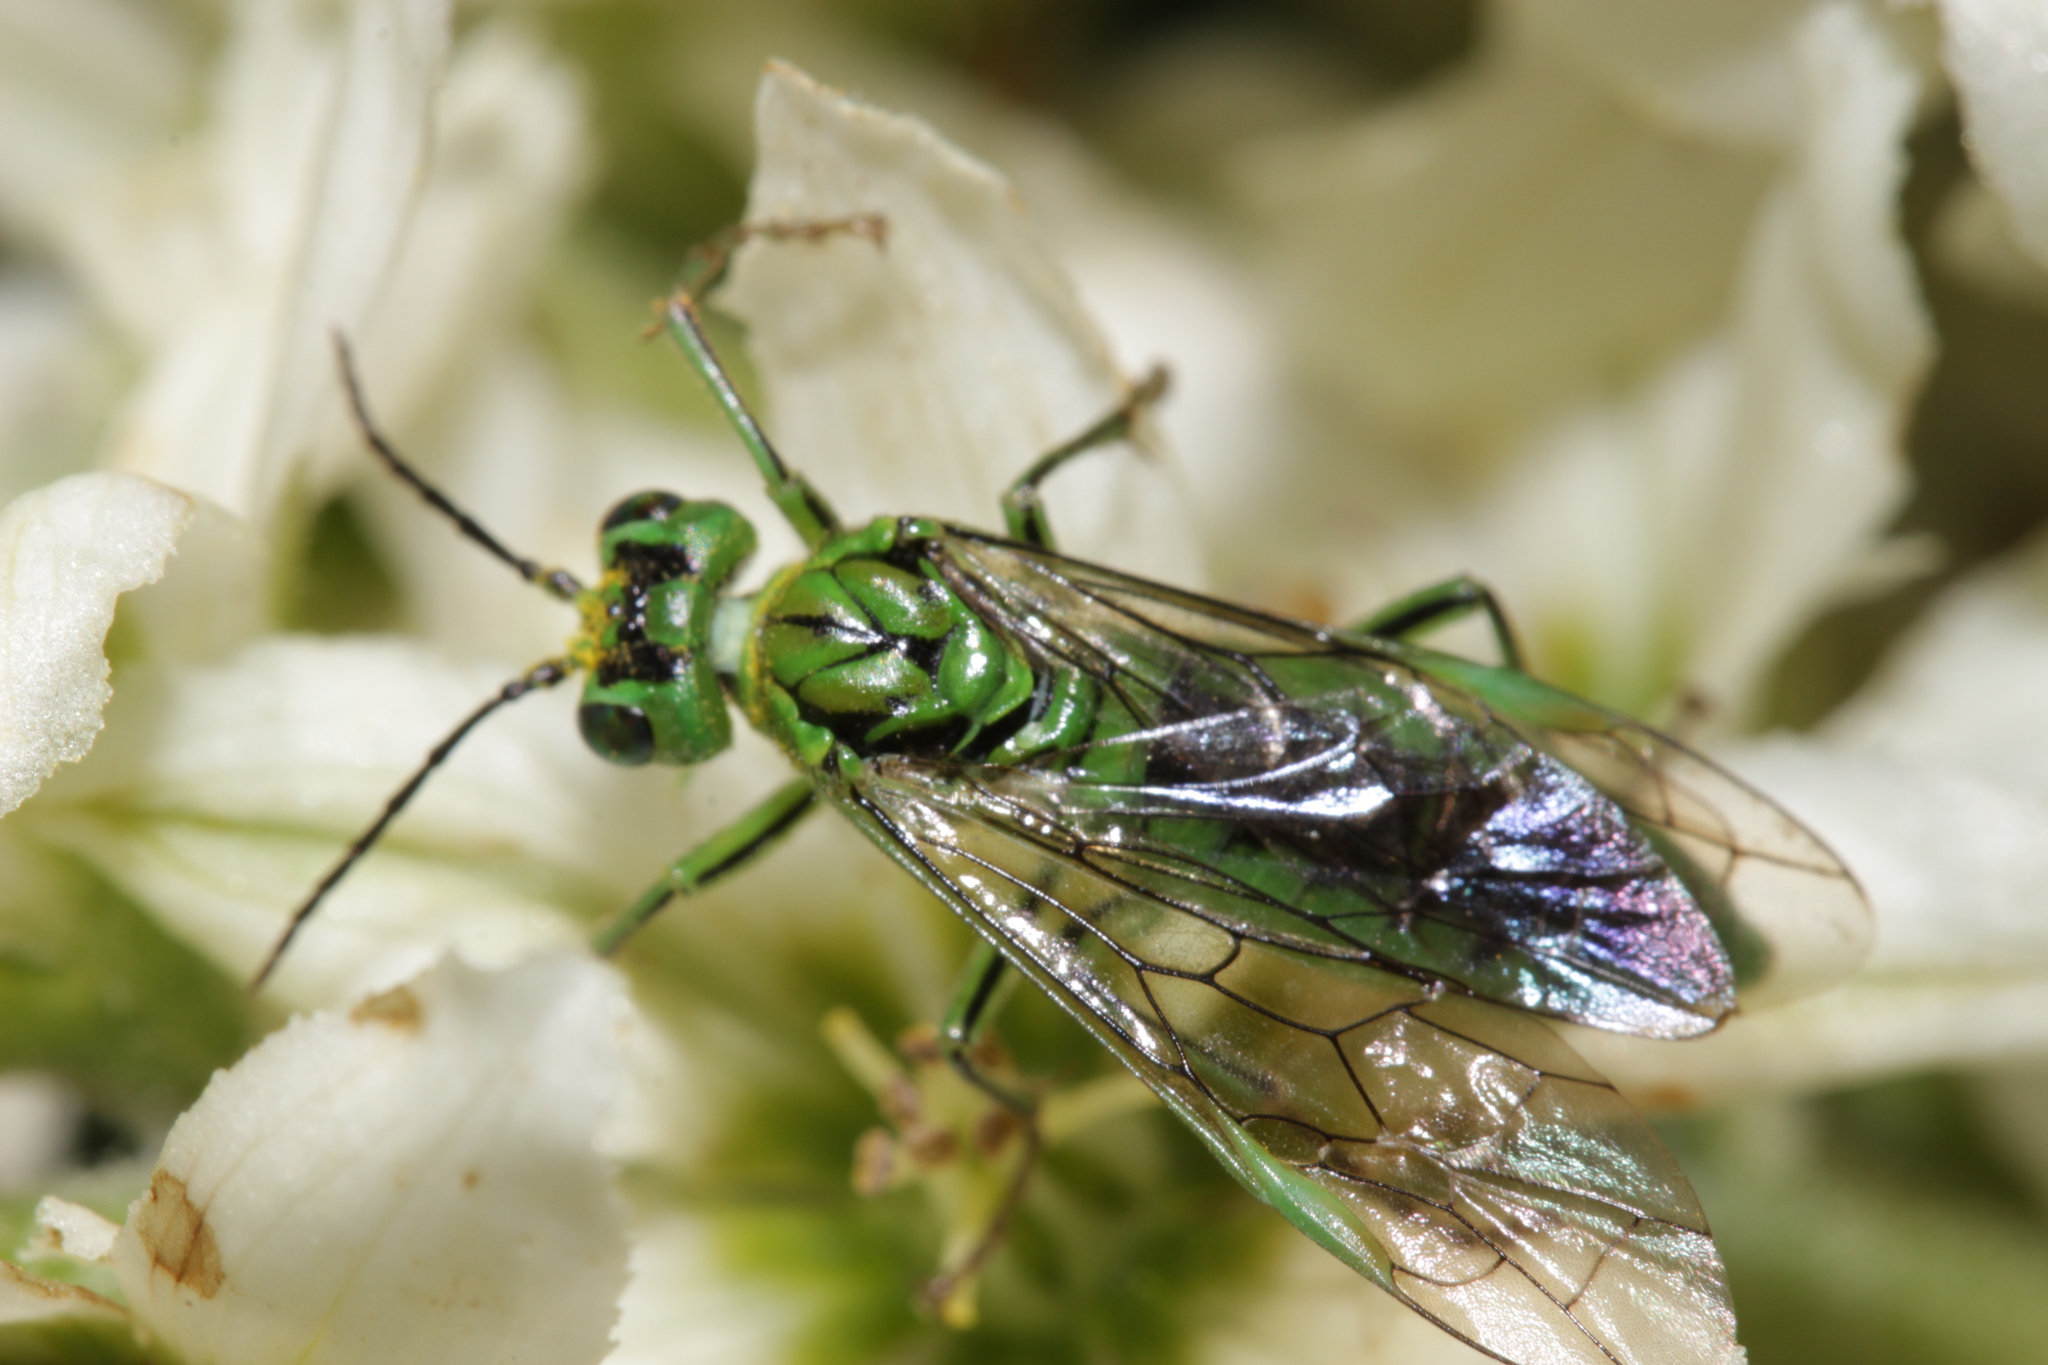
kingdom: Animalia
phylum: Arthropoda
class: Insecta
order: Hymenoptera
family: Tenthredinidae
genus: Tenthredo
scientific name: Tenthredo olivacea
